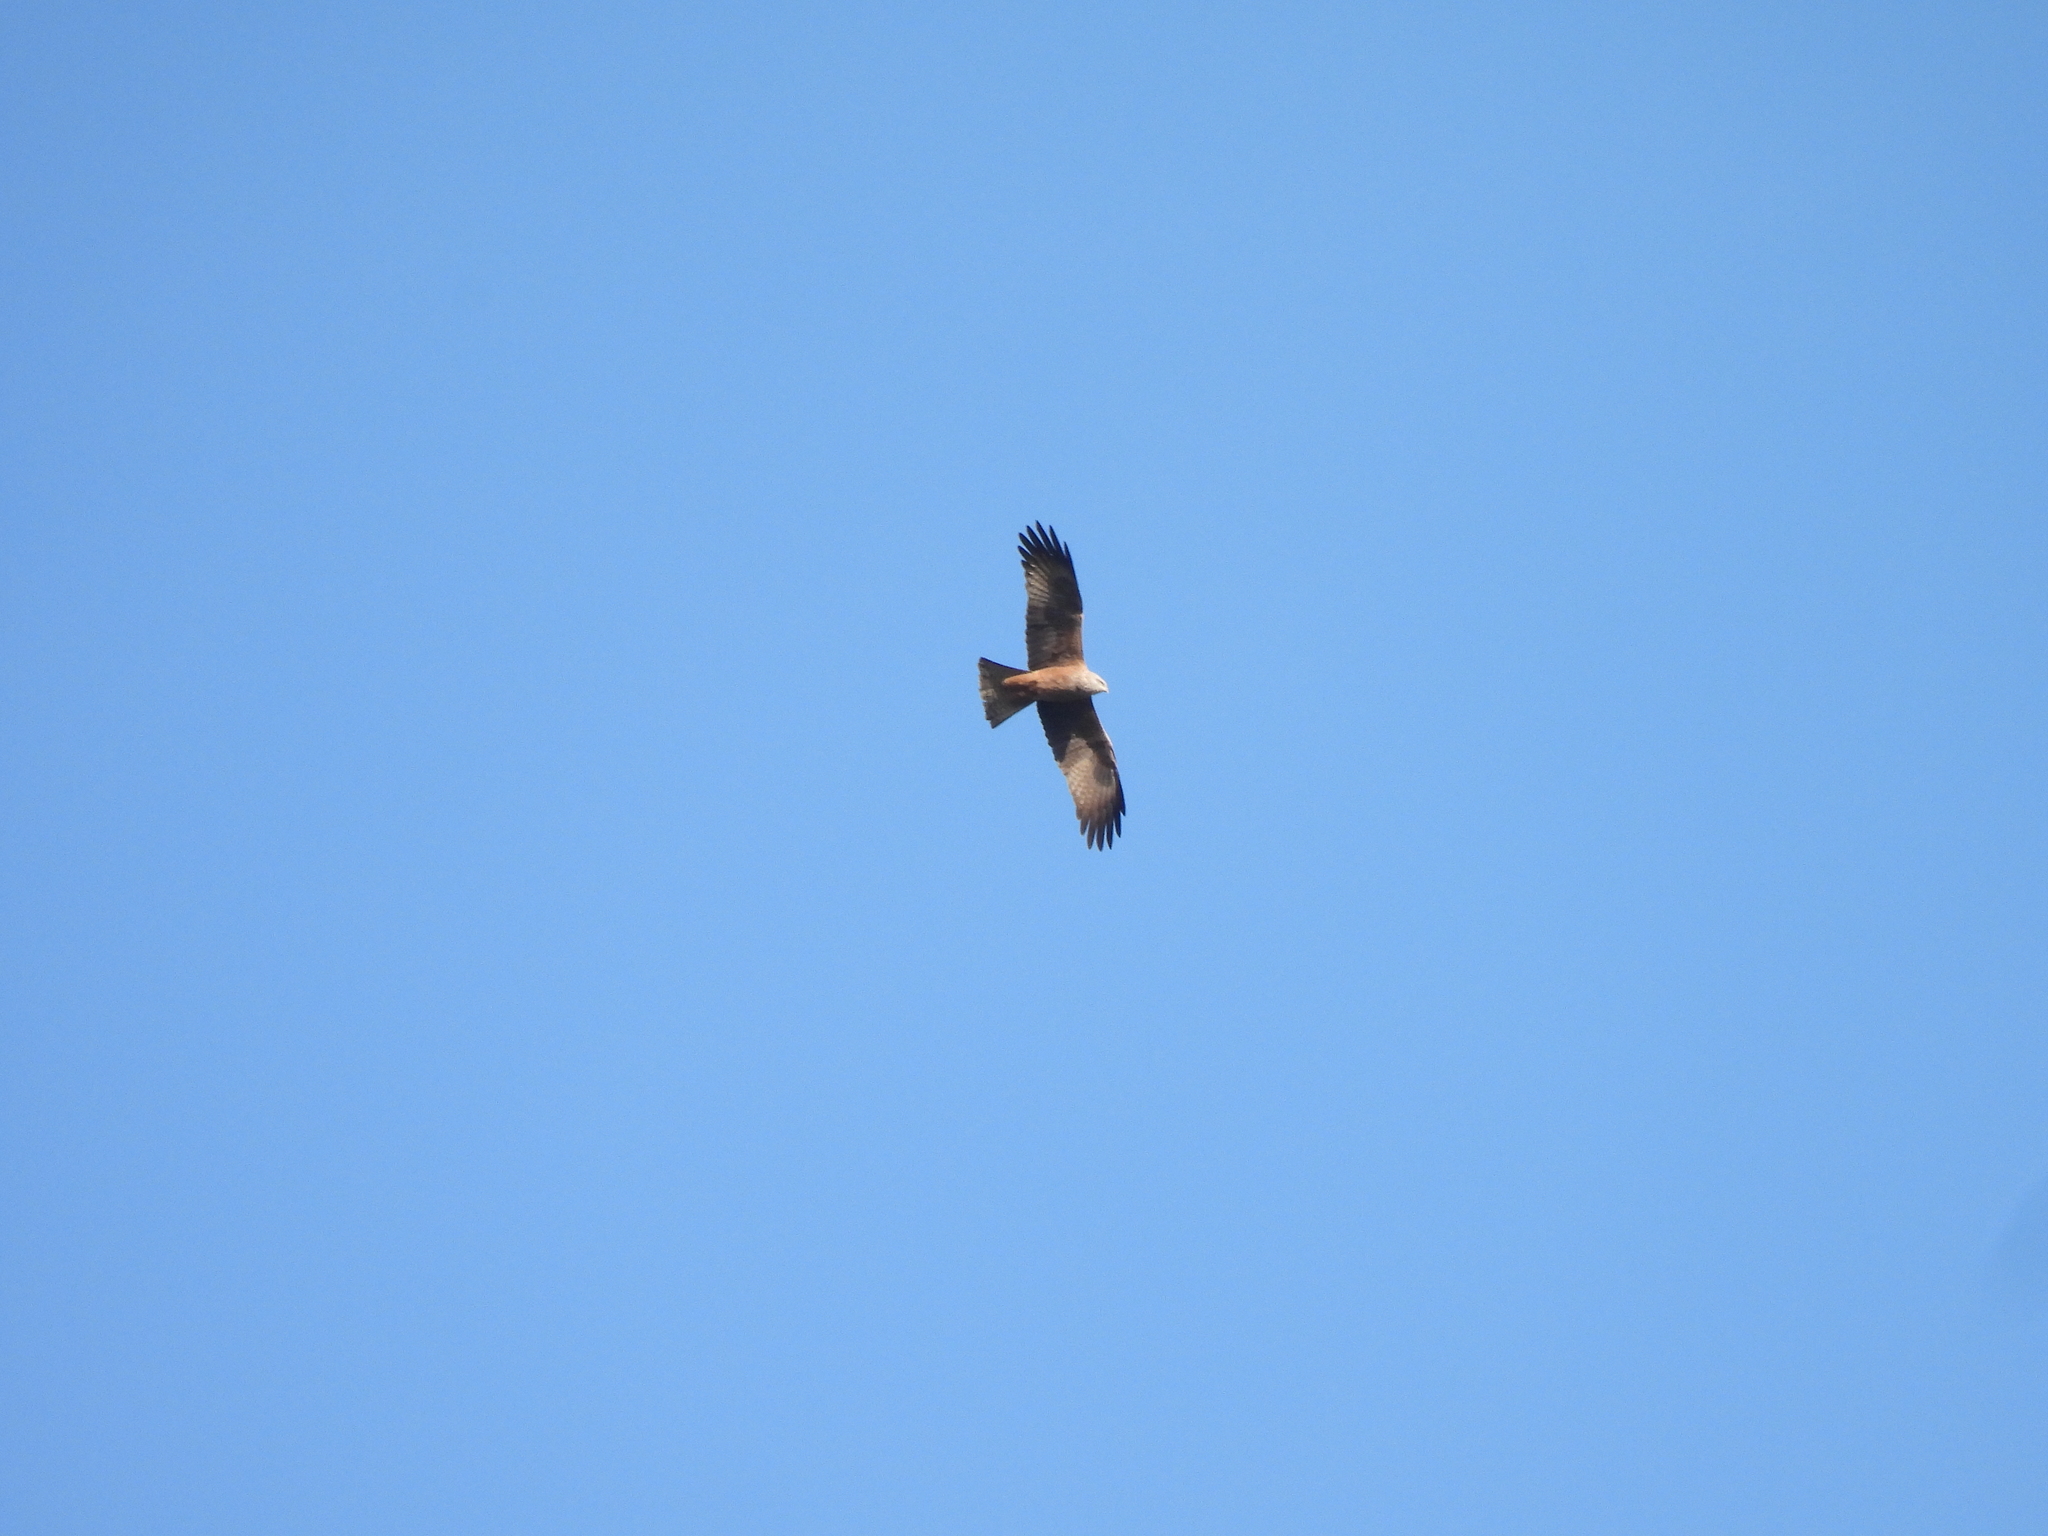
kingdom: Animalia
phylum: Chordata
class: Aves
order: Accipitriformes
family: Accipitridae
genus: Milvus
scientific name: Milvus migrans
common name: Black kite
